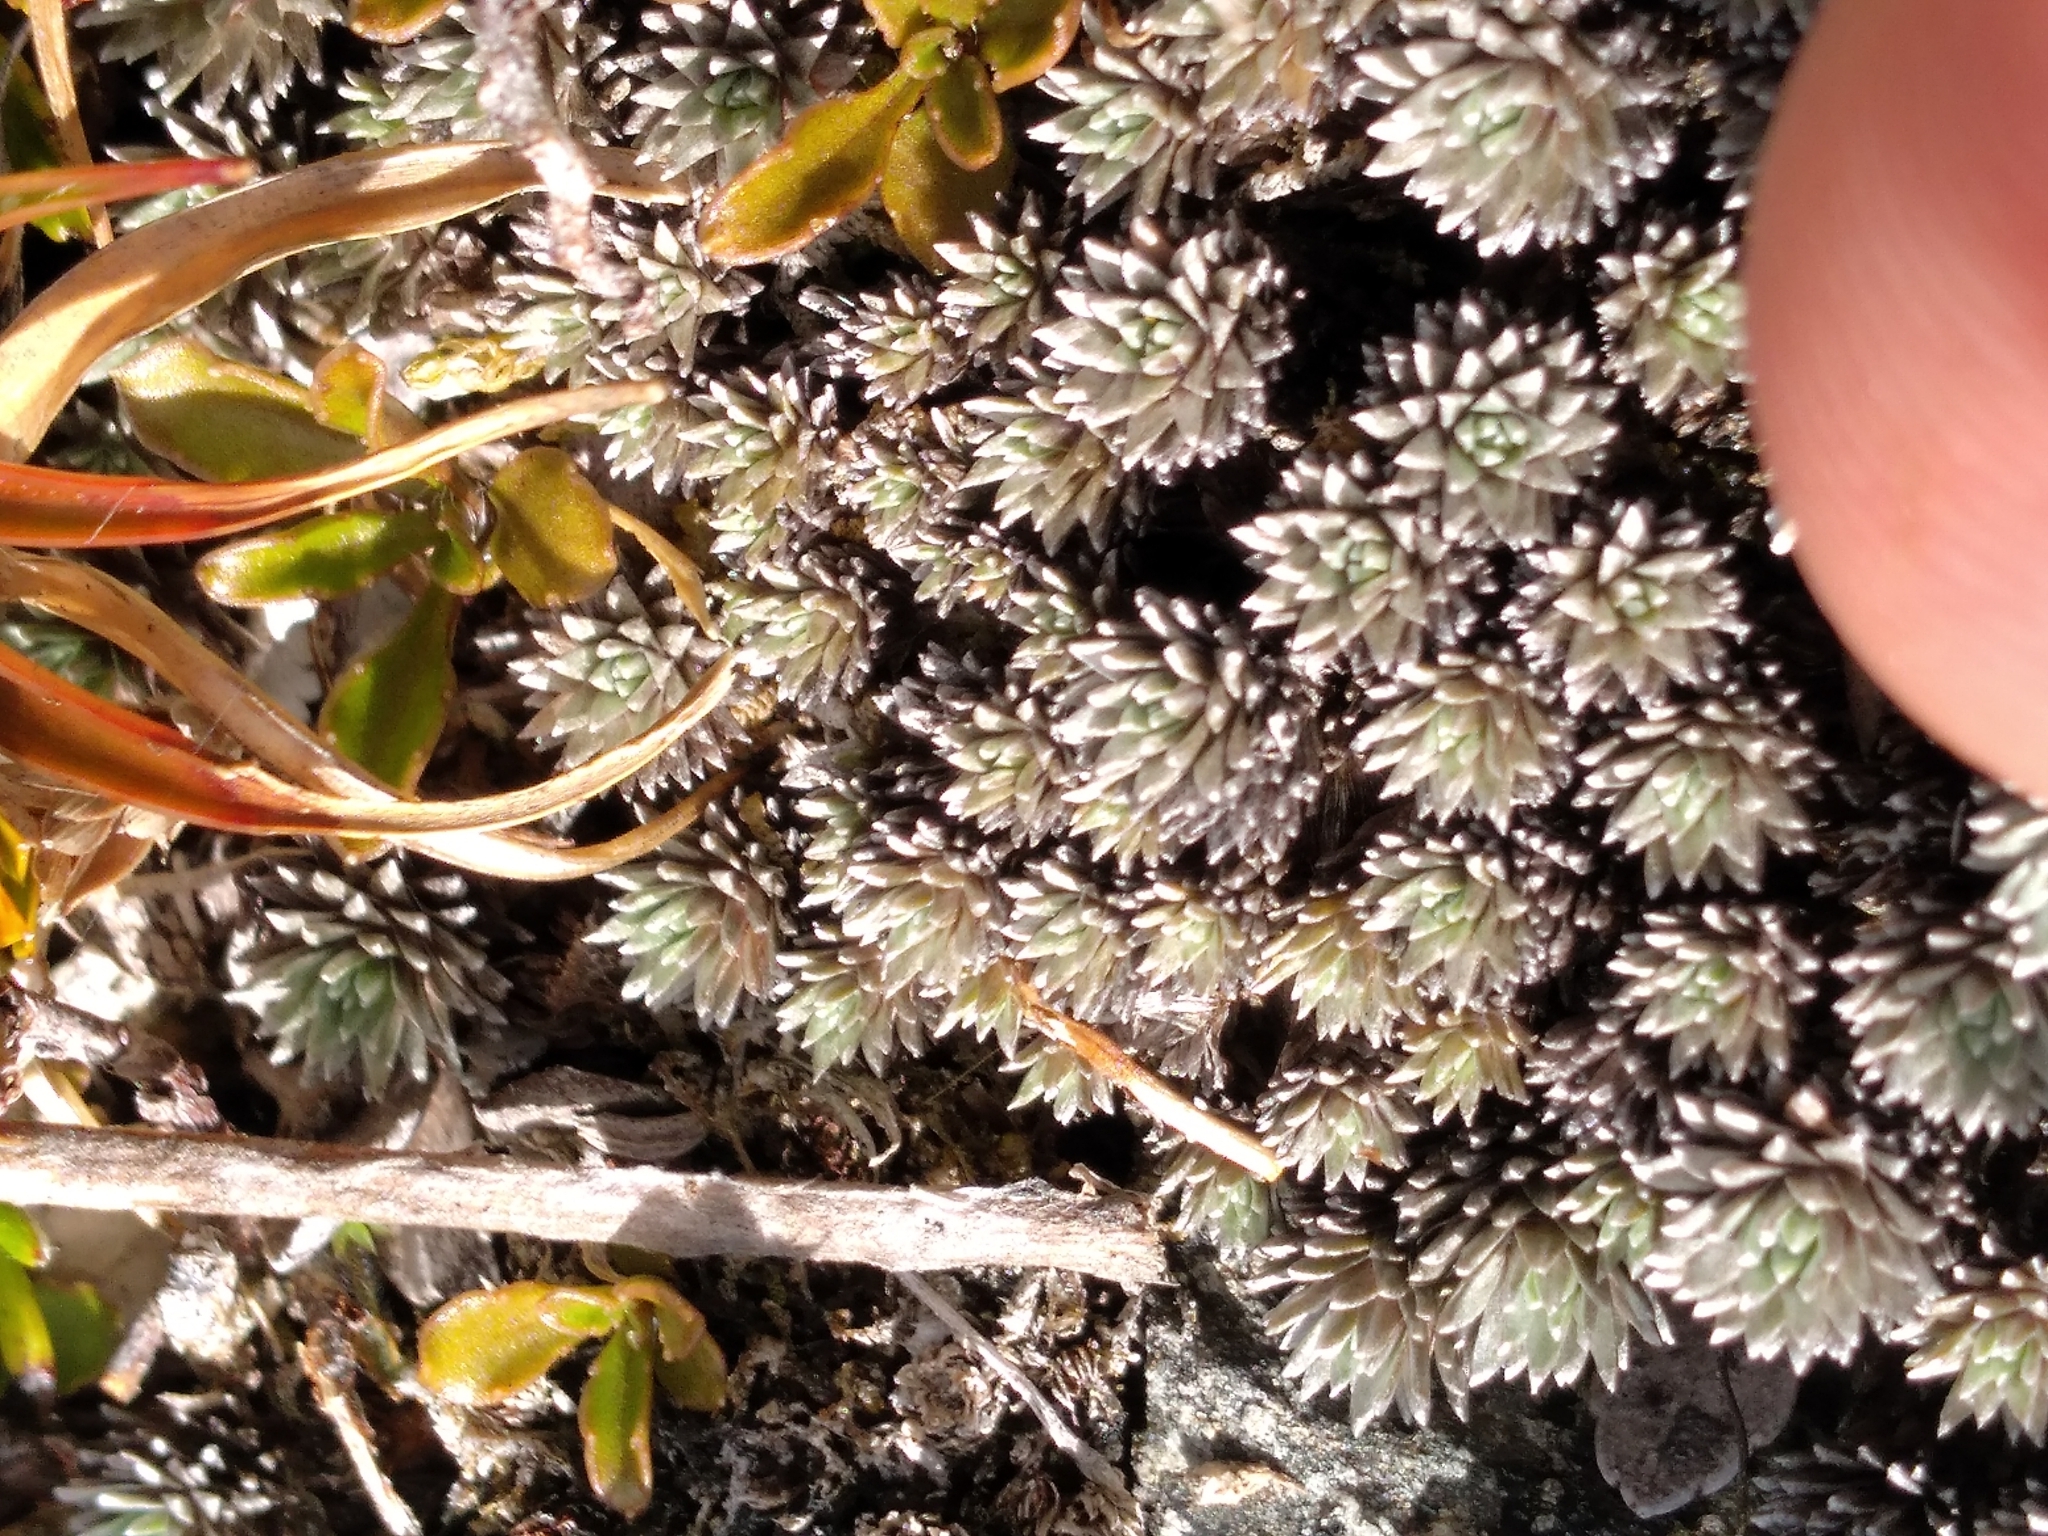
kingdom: Plantae
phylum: Tracheophyta
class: Magnoliopsida
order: Asterales
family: Asteraceae
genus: Raoulia
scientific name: Raoulia grandiflora
